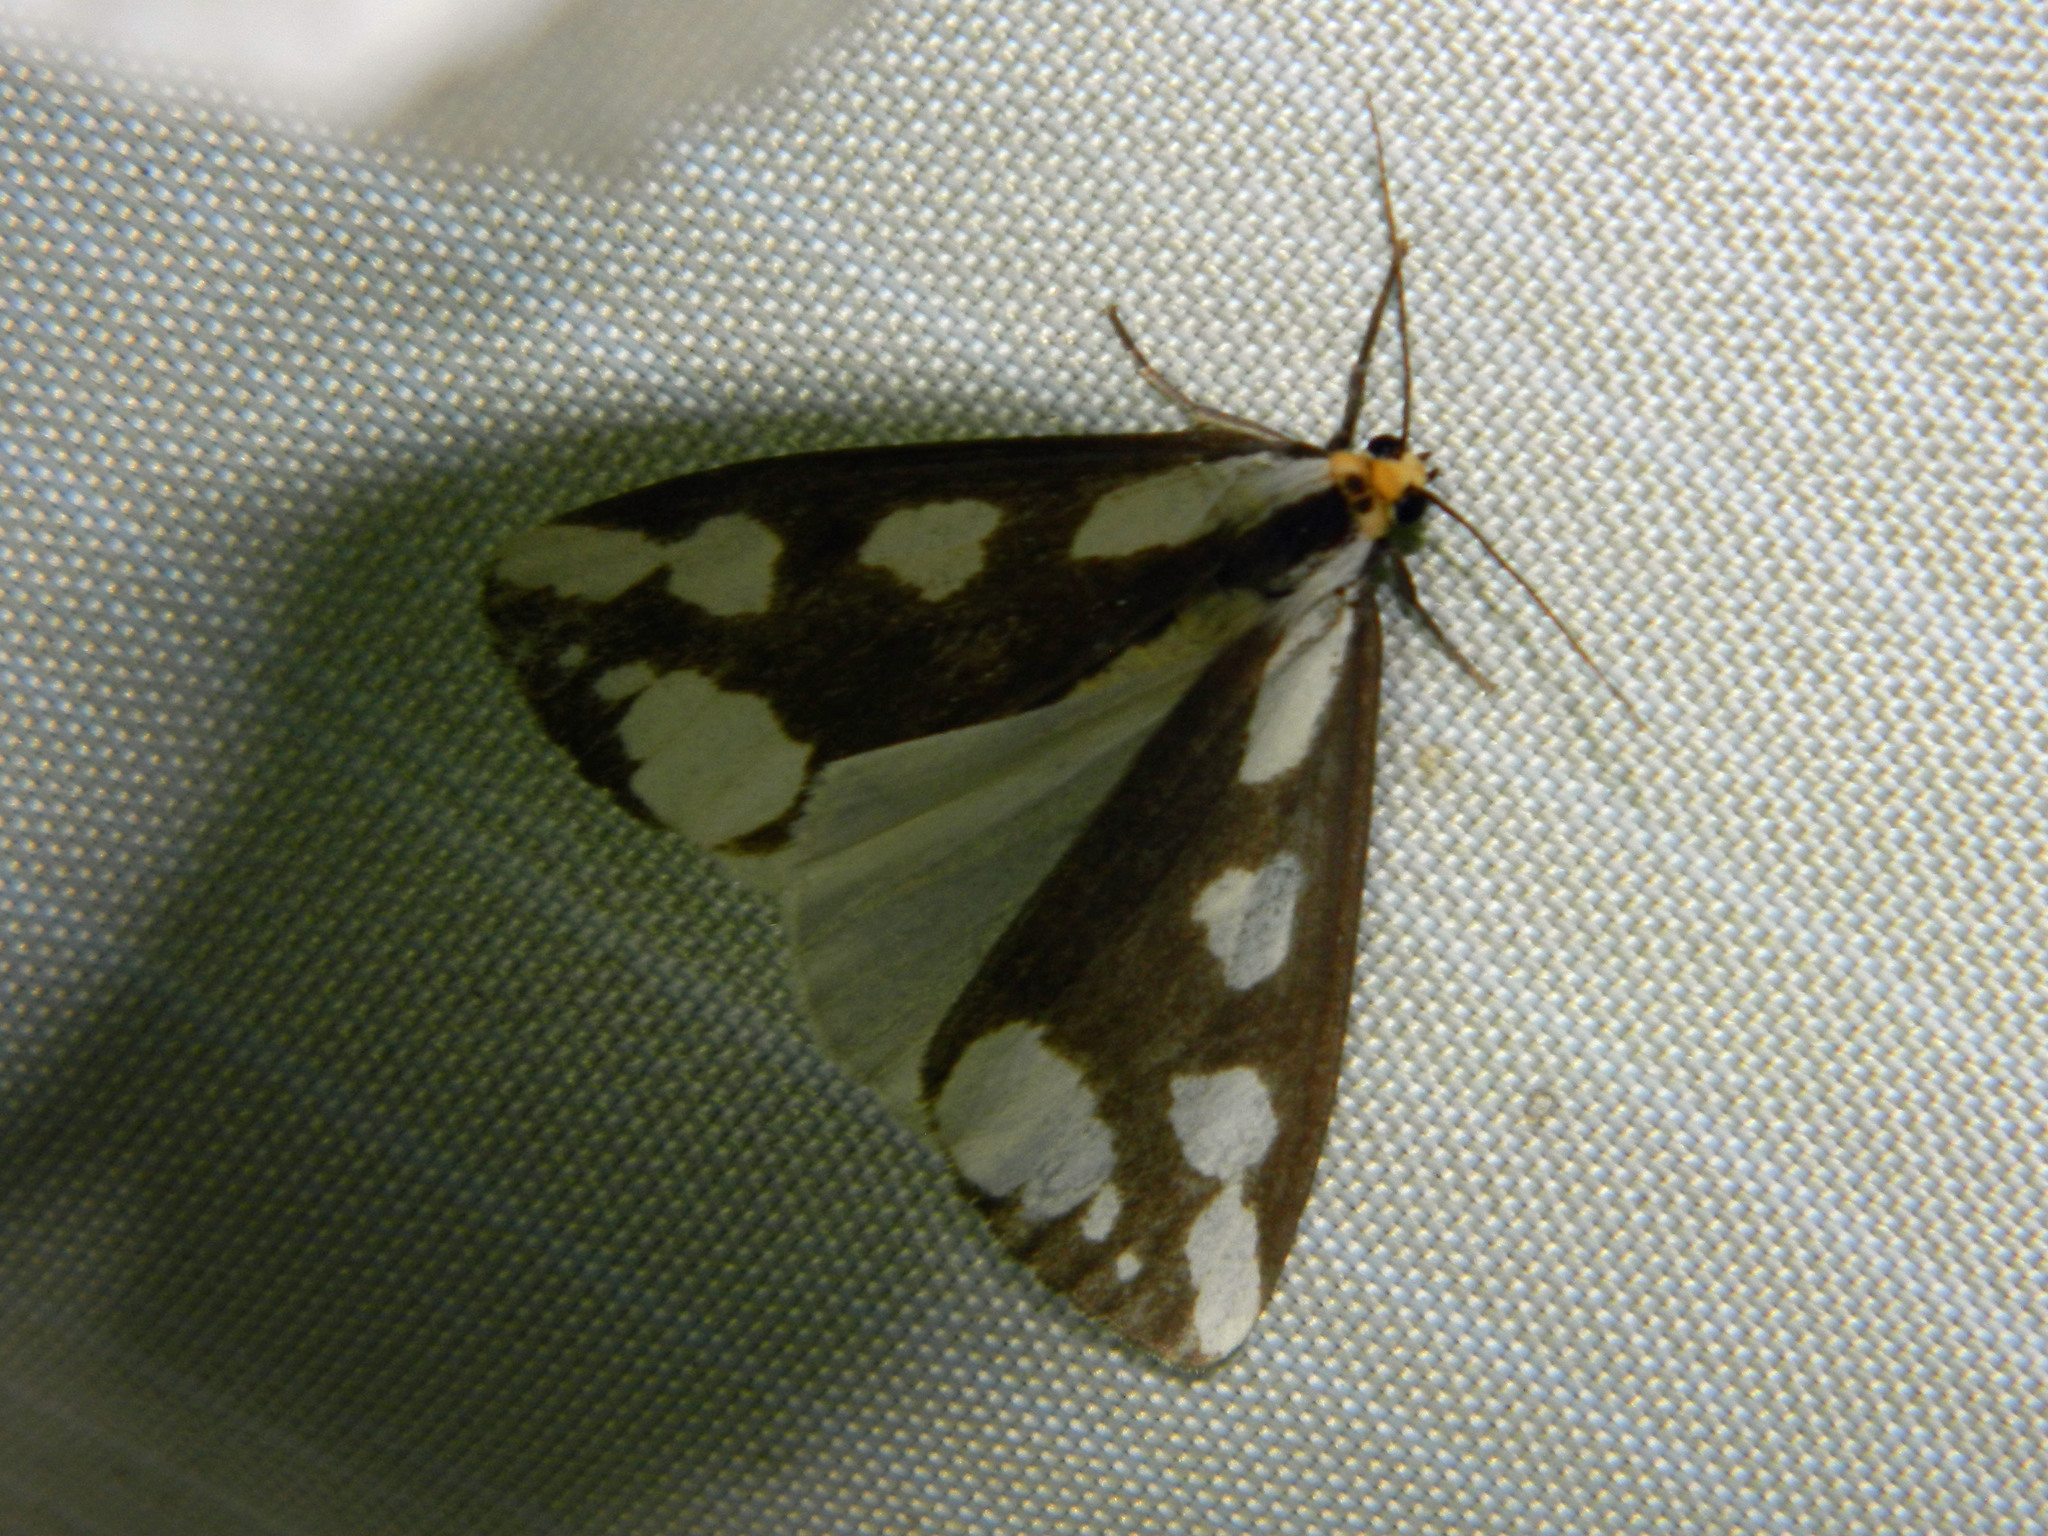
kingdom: Animalia
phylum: Arthropoda
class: Insecta
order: Lepidoptera
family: Erebidae
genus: Haploa
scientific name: Haploa lecontei
